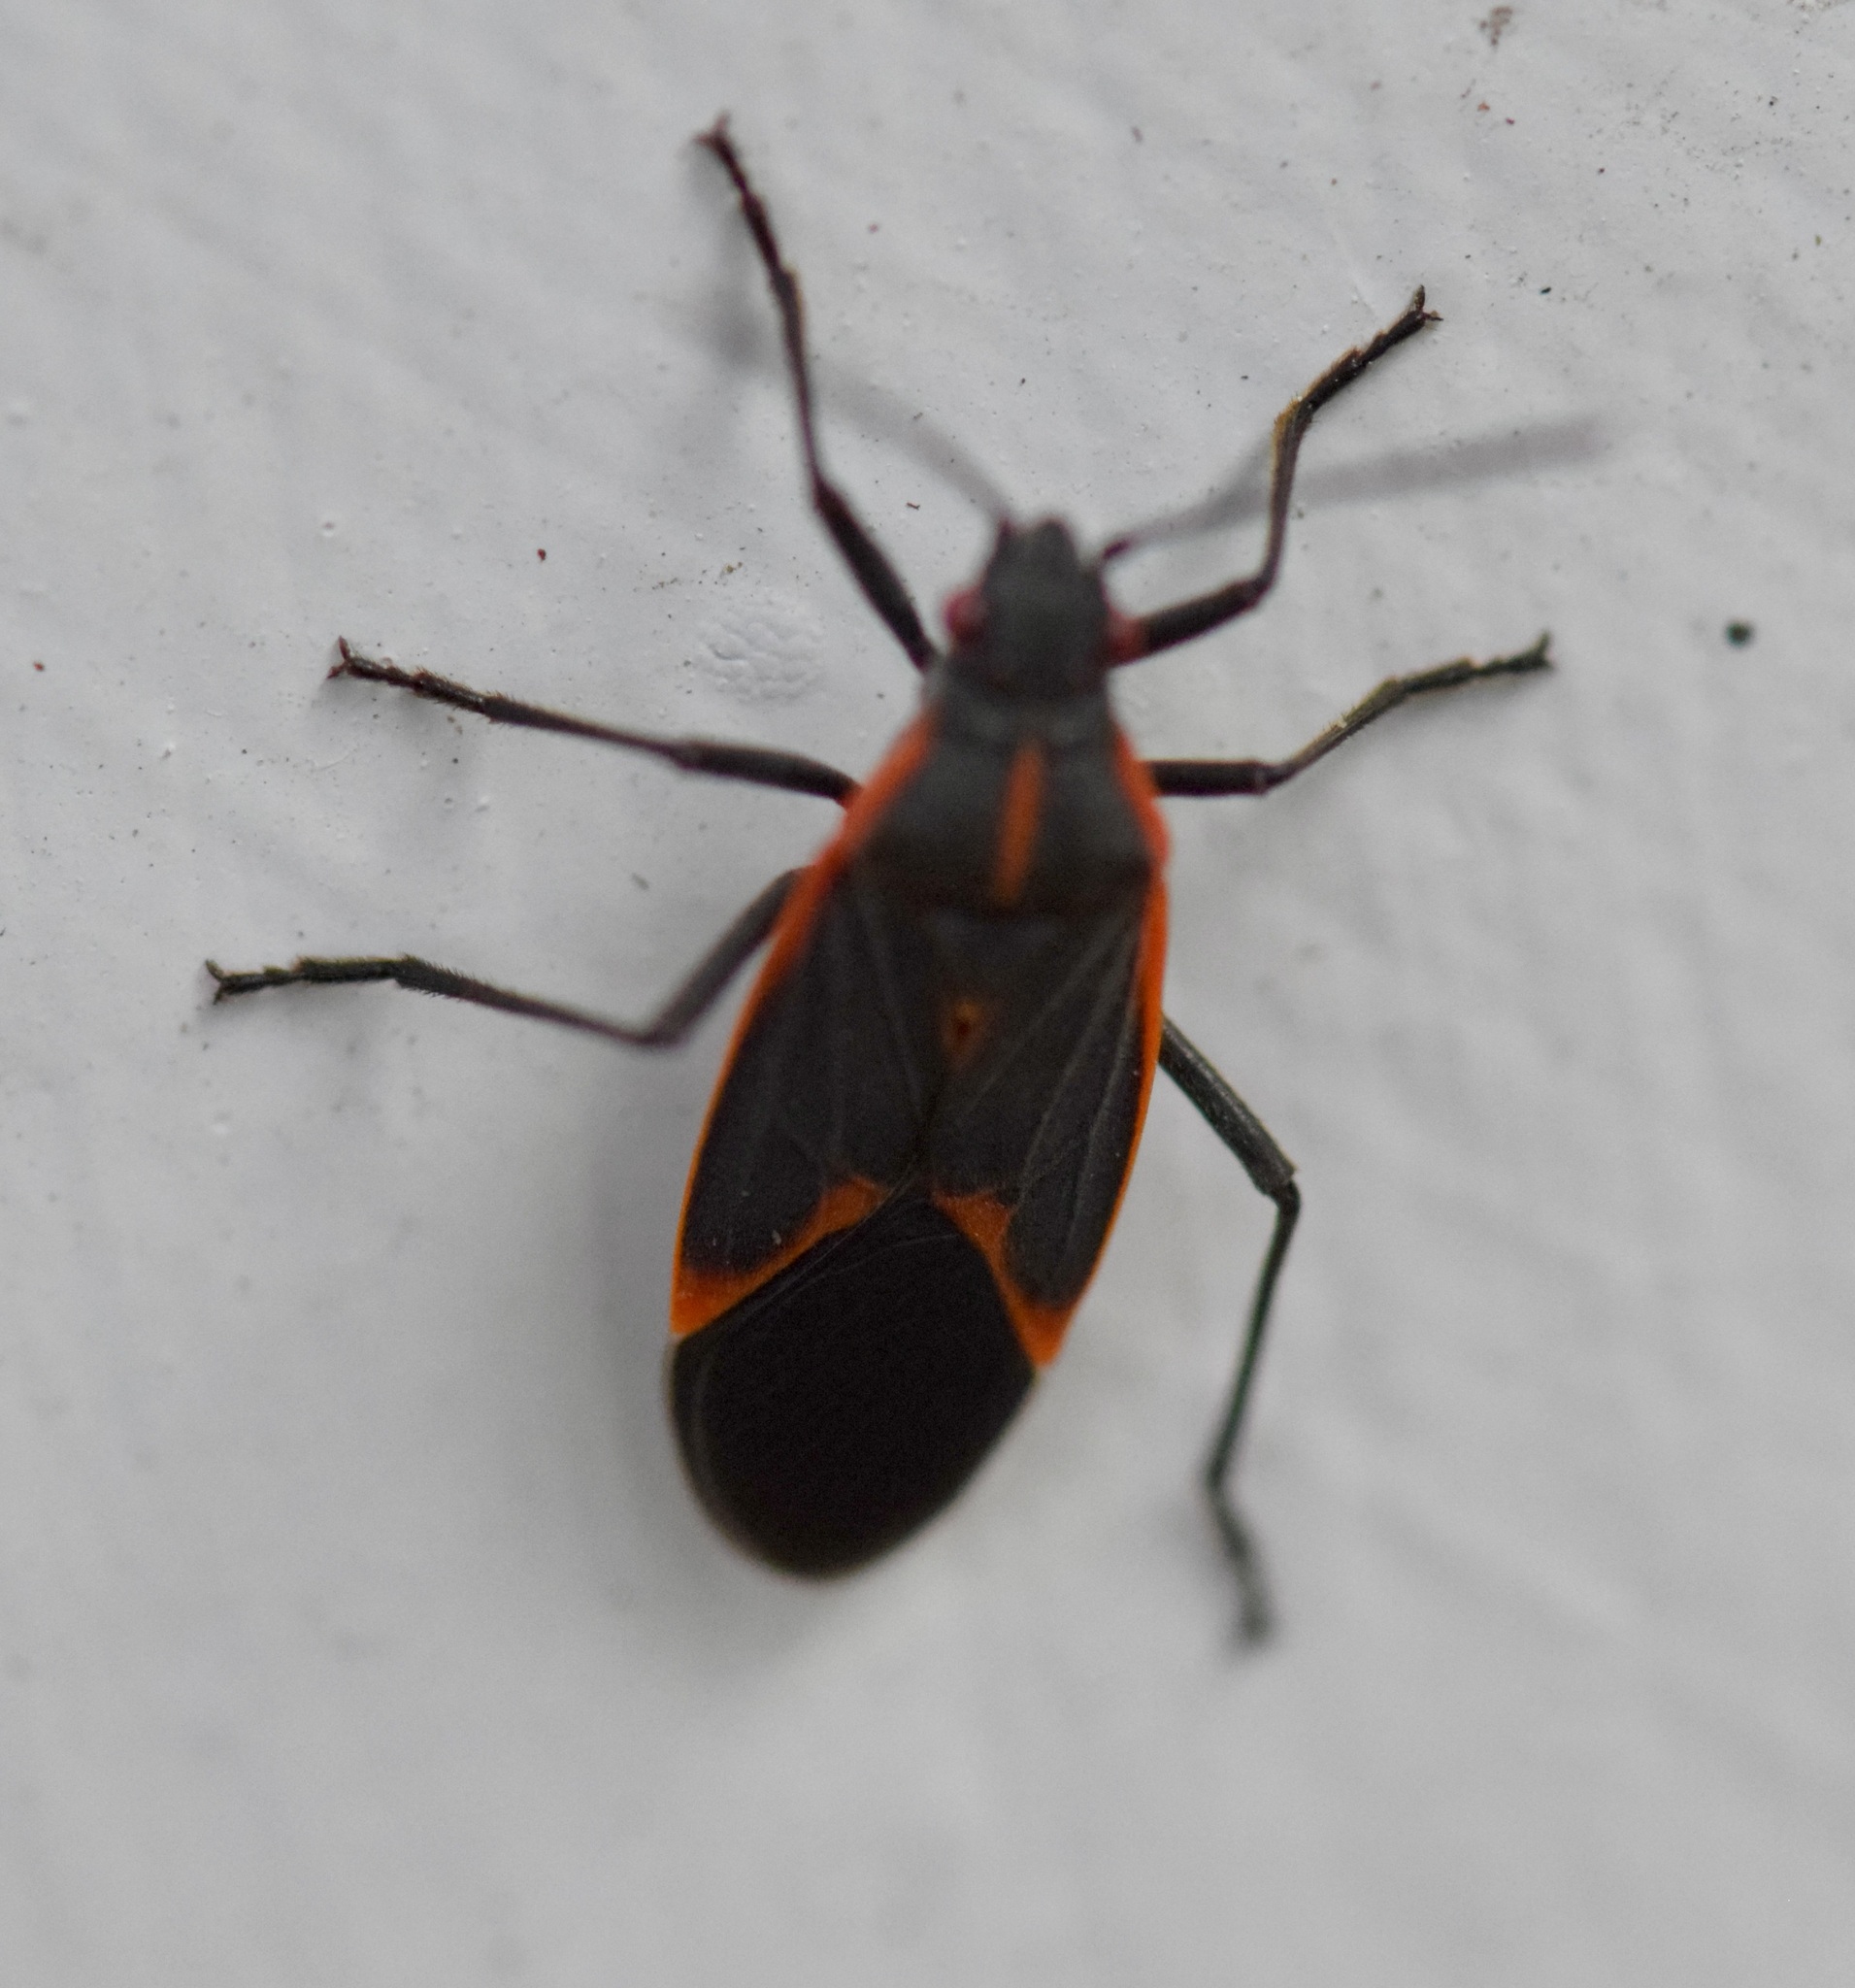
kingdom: Animalia
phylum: Arthropoda
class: Insecta
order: Hemiptera
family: Rhopalidae
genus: Boisea
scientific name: Boisea trivittata
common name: Boxelder bug
